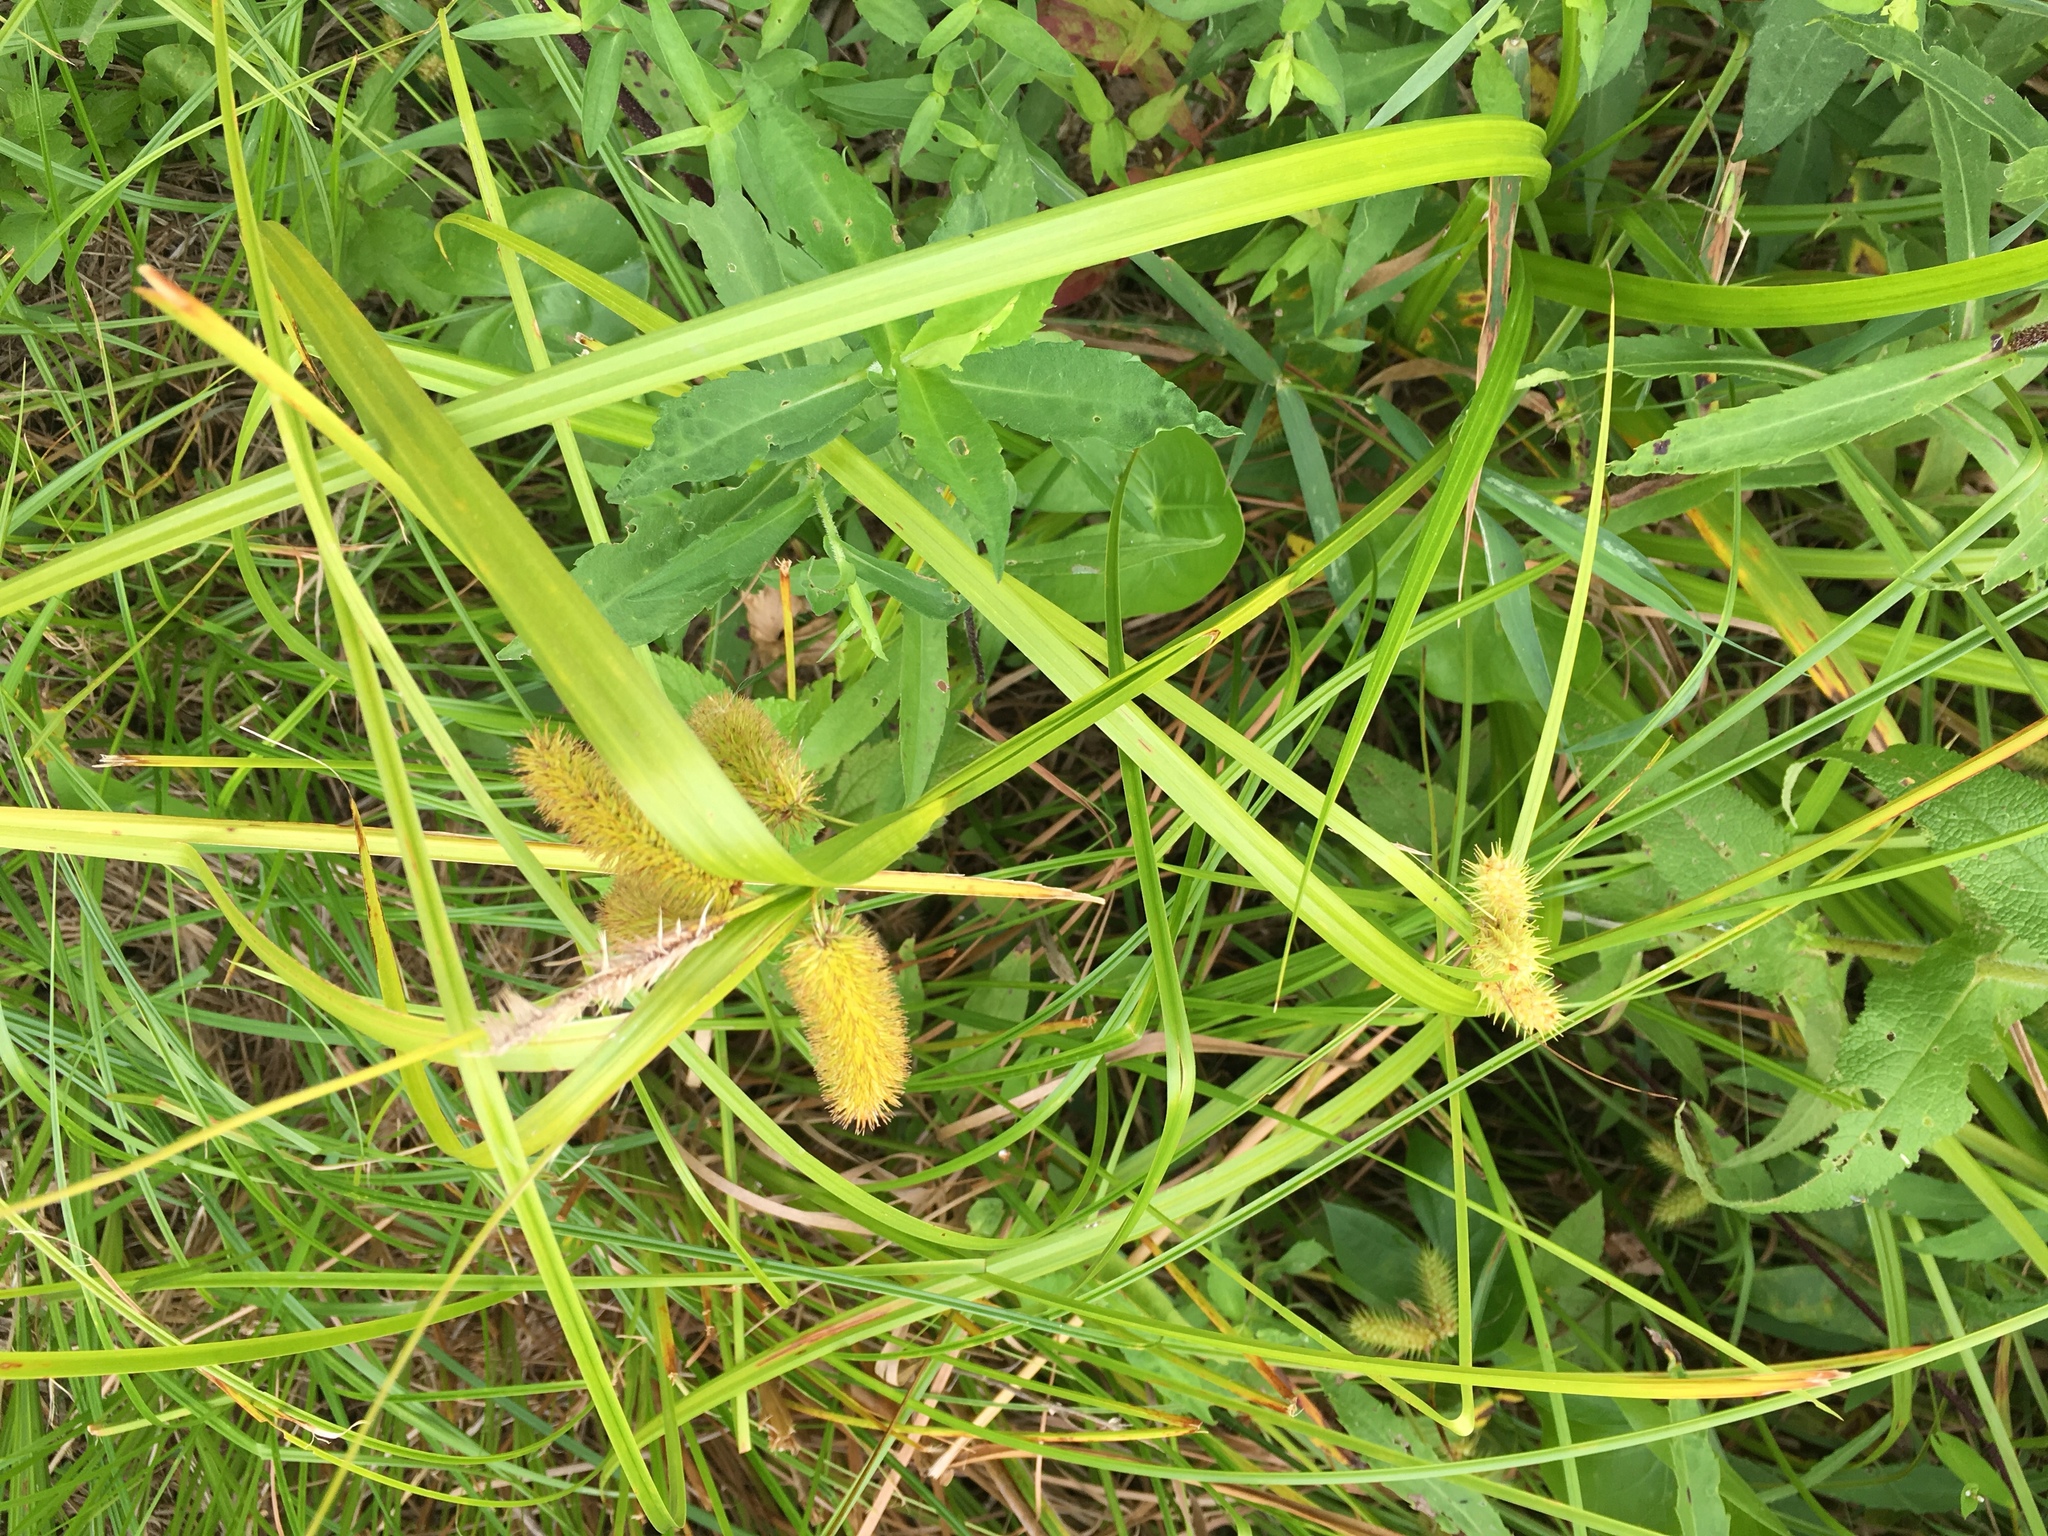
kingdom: Plantae
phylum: Tracheophyta
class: Liliopsida
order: Poales
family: Cyperaceae
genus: Carex
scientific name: Carex comosa
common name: Bristly sedge
